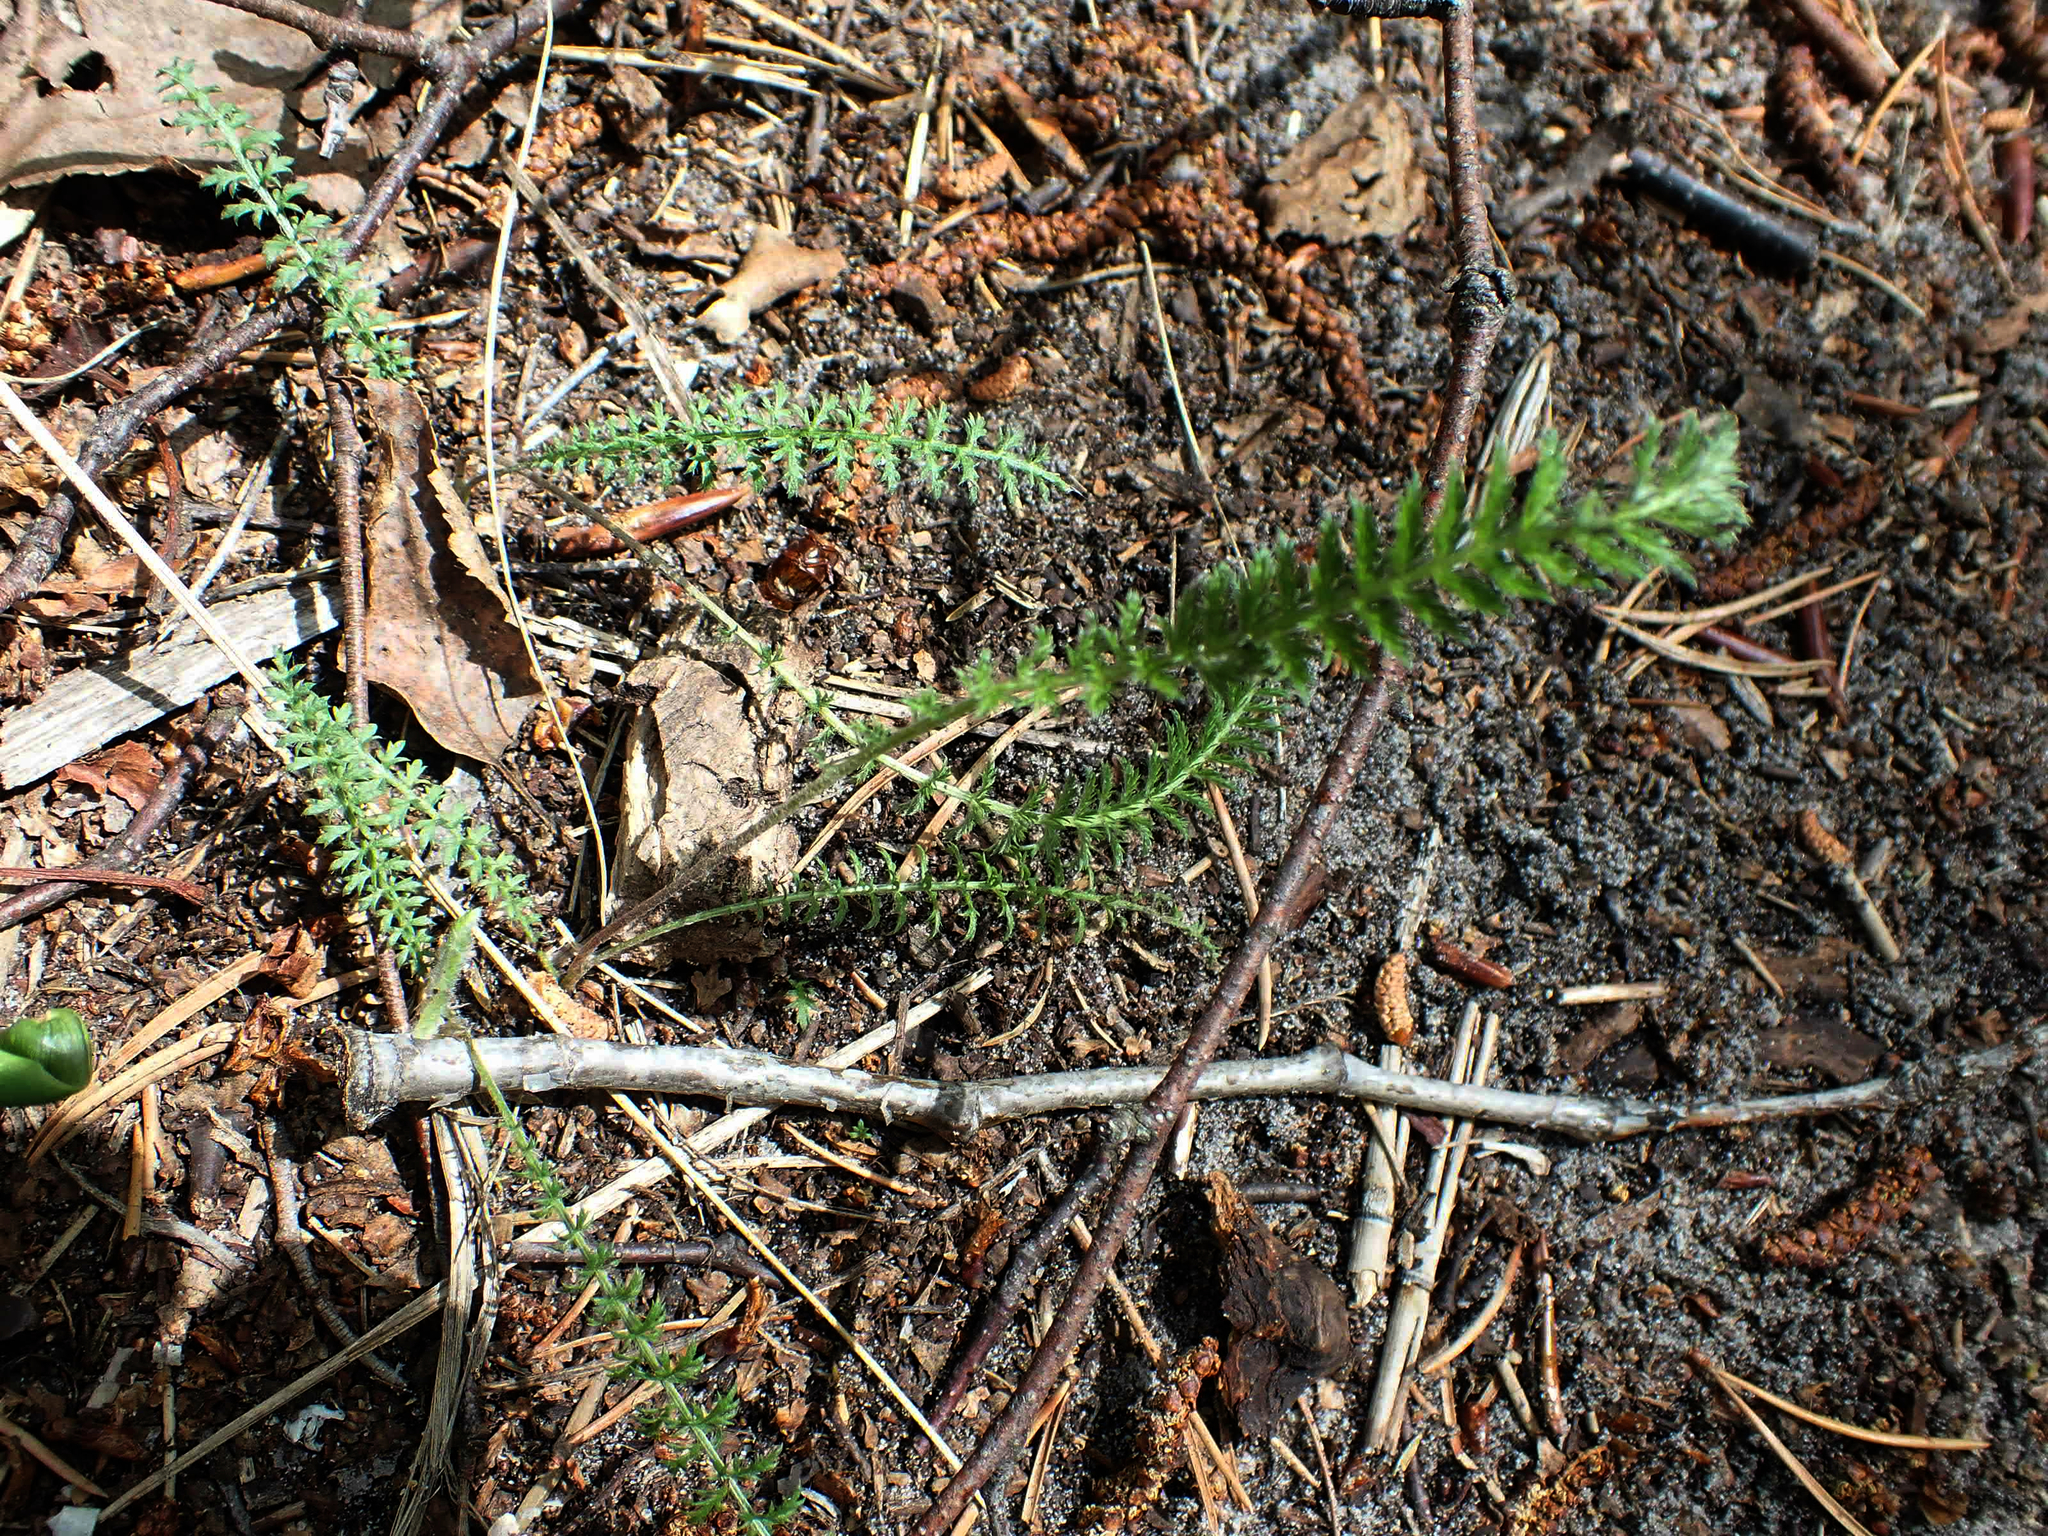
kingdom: Plantae
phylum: Tracheophyta
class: Magnoliopsida
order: Asterales
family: Asteraceae
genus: Achillea
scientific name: Achillea millefolium
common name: Yarrow
